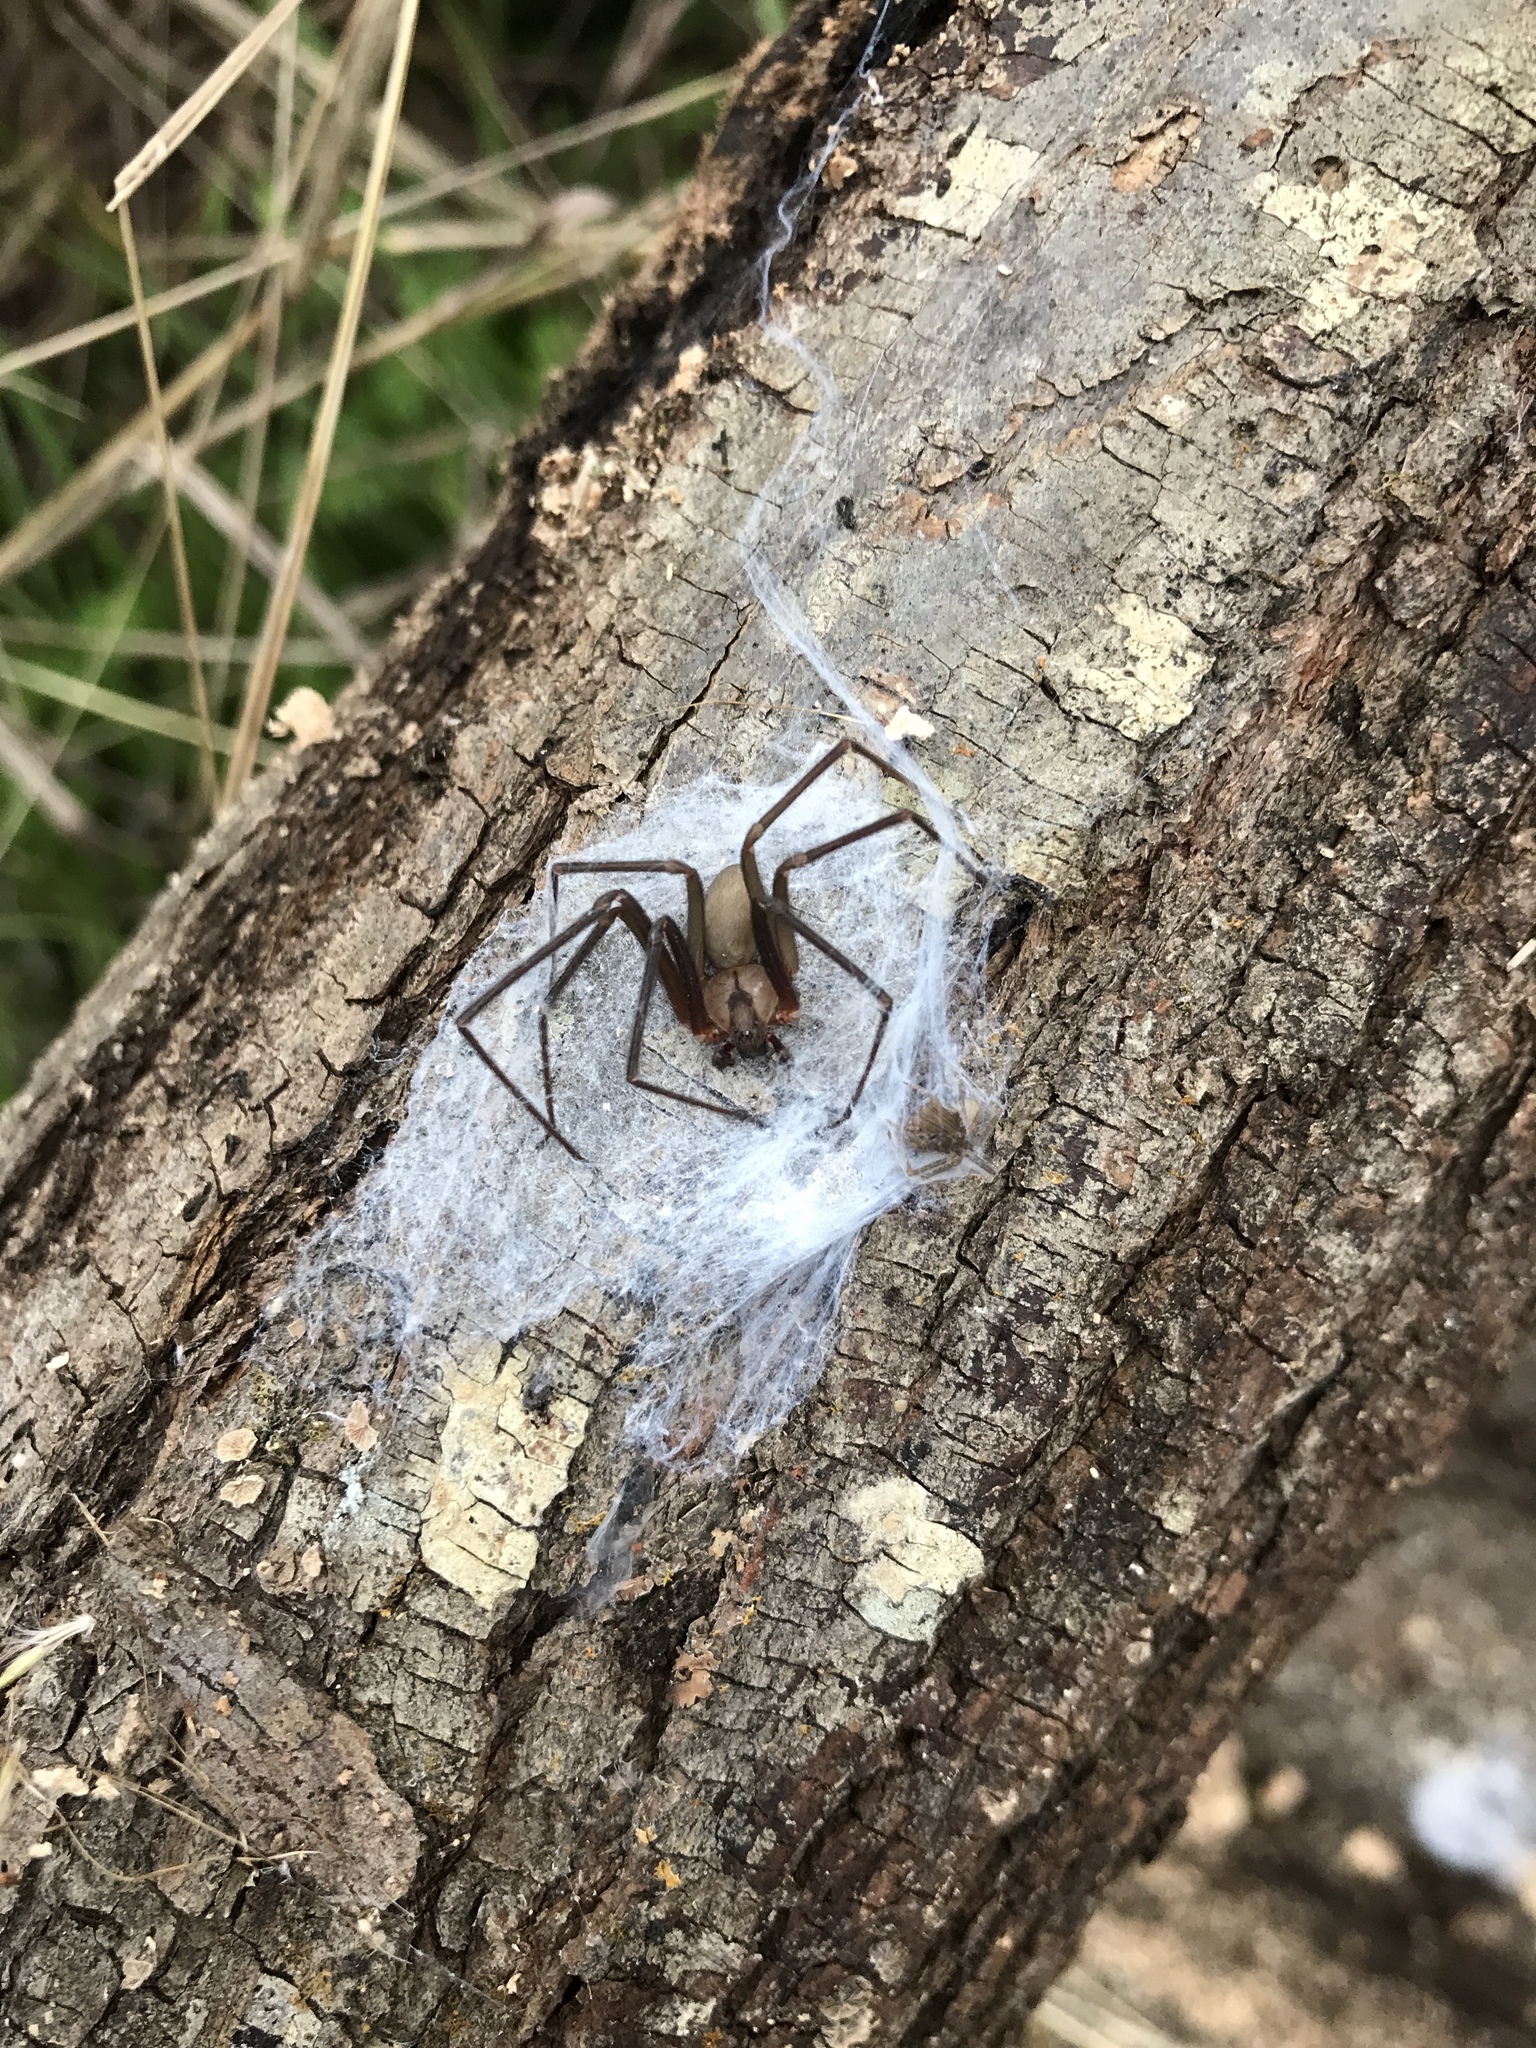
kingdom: Animalia
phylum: Arthropoda
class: Arachnida
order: Araneae
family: Sicariidae
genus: Loxosceles
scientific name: Loxosceles reclusa
